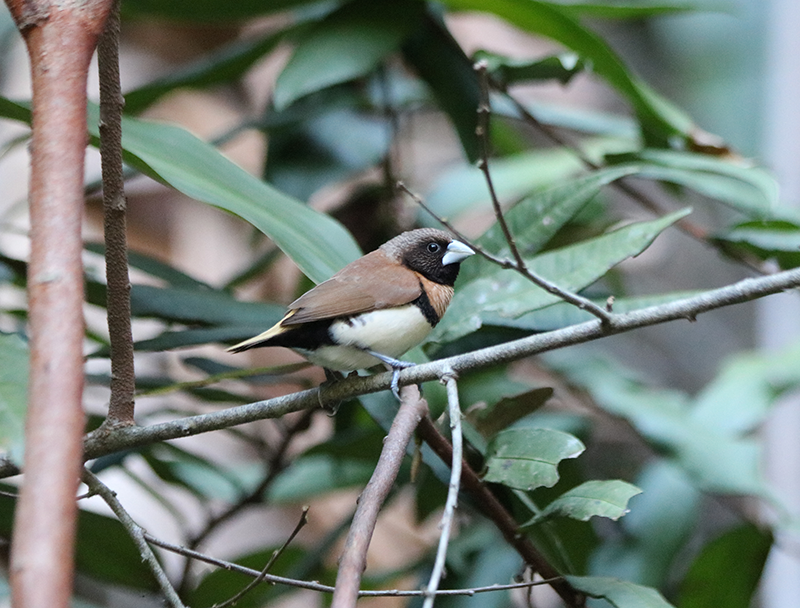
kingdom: Animalia
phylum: Chordata
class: Aves
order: Passeriformes
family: Estrildidae
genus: Lonchura
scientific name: Lonchura castaneothorax
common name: Chestnut-breasted mannikin
